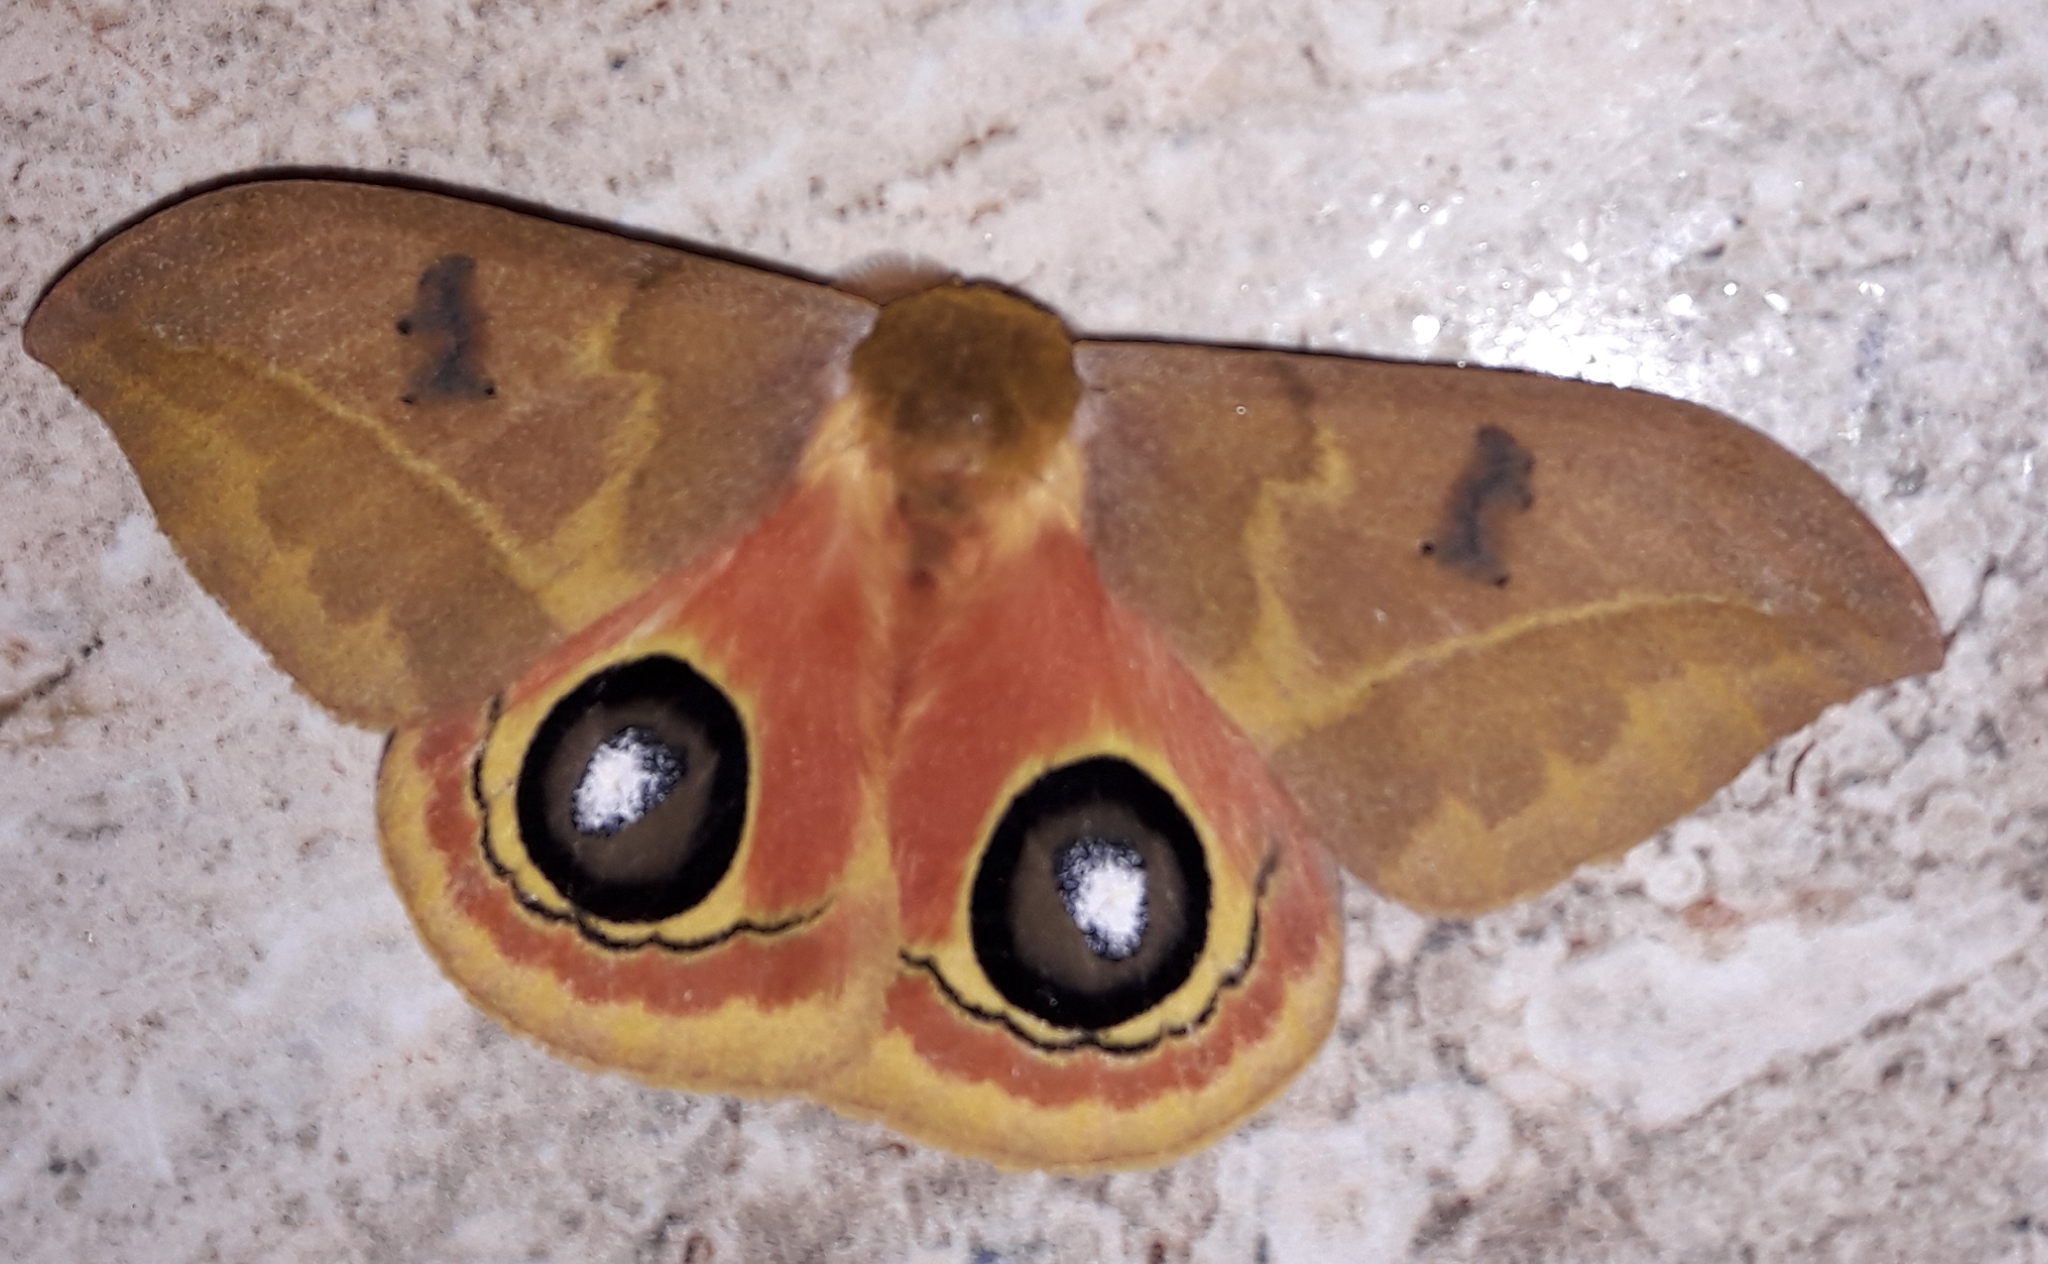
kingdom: Animalia
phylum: Arthropoda
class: Insecta
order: Lepidoptera
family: Saturniidae
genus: Automeris
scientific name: Automeris tridens
